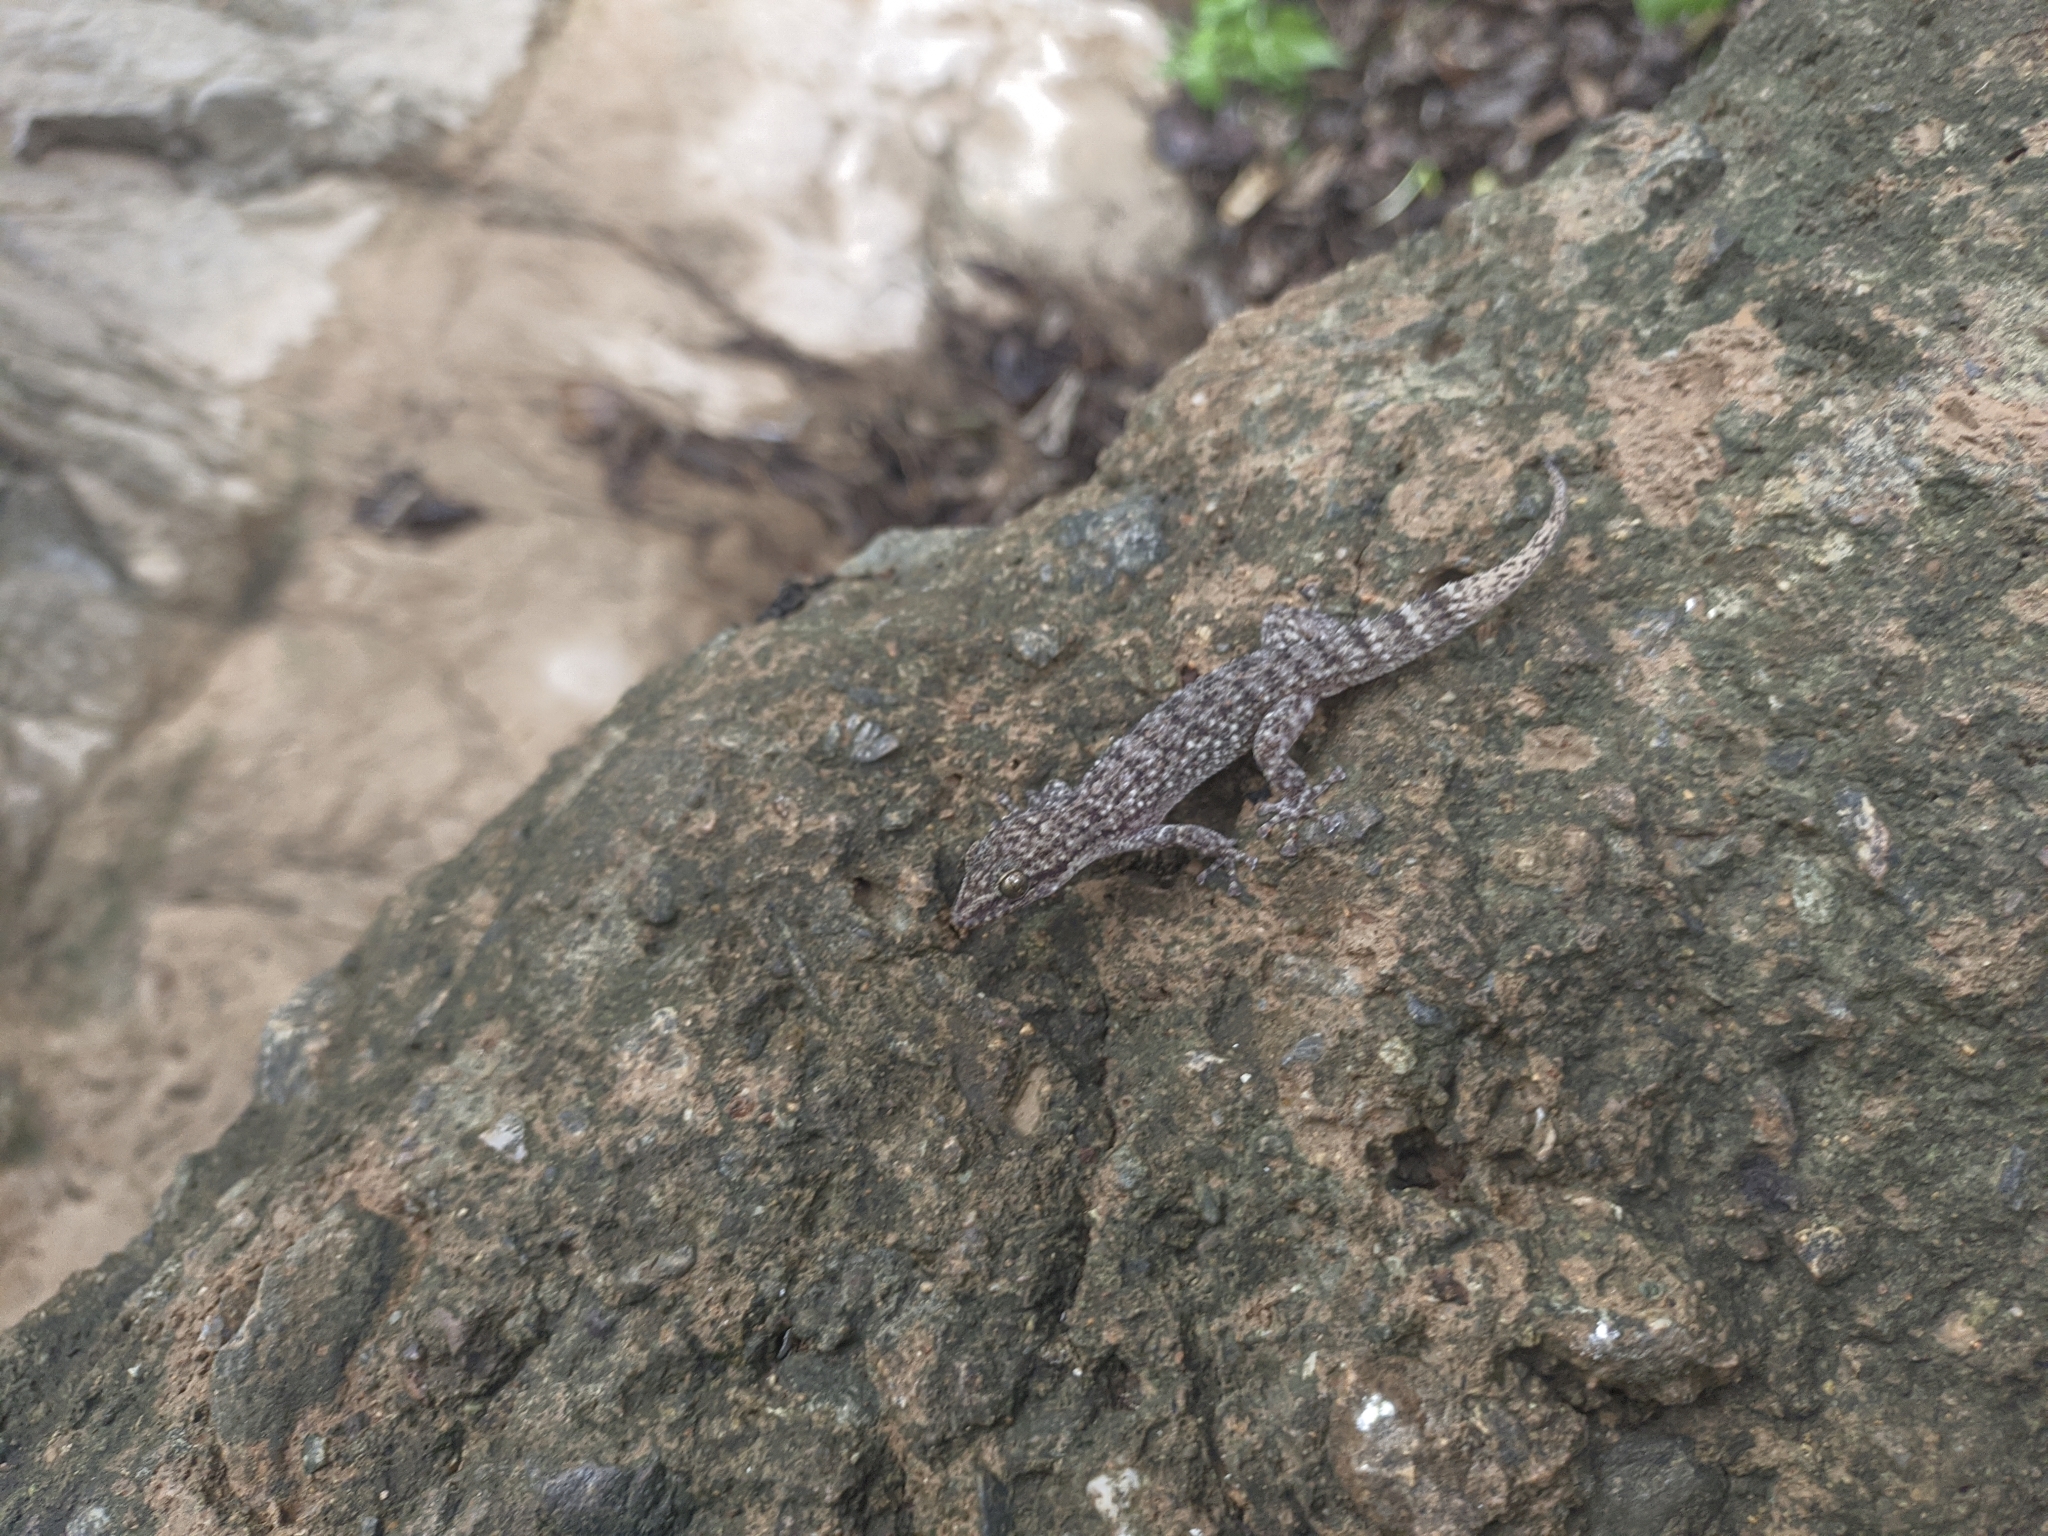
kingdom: Animalia
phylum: Chordata
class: Squamata
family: Phyllodactylidae
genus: Phyllodactylus
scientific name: Phyllodactylus ventralis
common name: Margarita leaf-toed gecko
